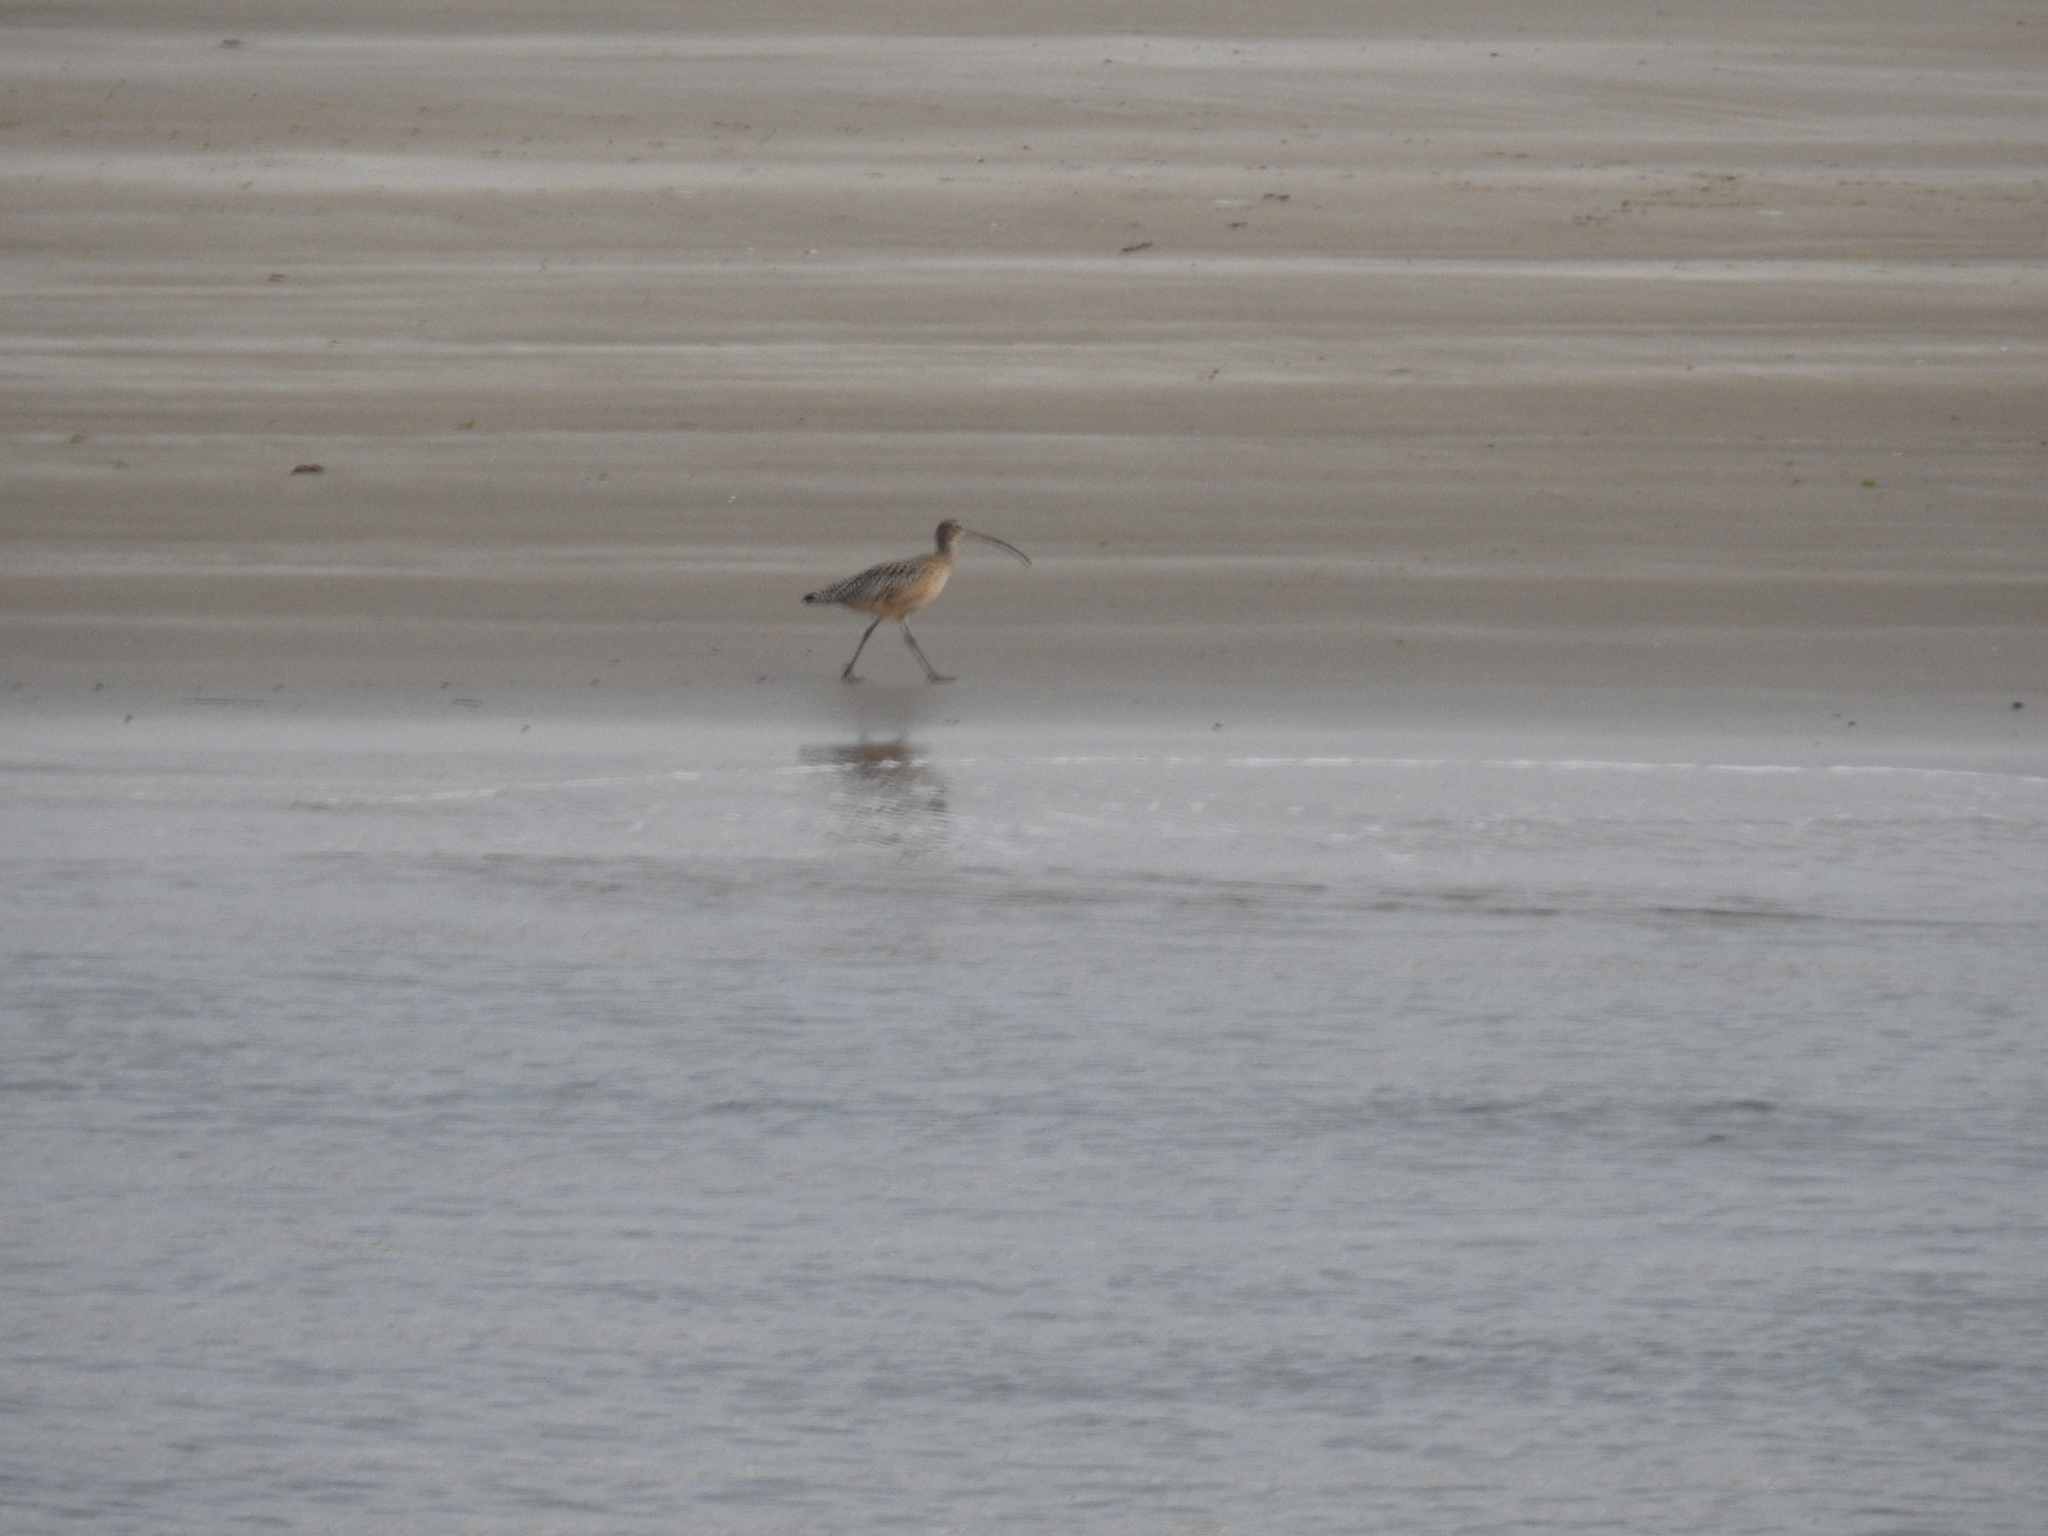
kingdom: Animalia
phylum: Chordata
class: Aves
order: Charadriiformes
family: Scolopacidae
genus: Numenius
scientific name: Numenius americanus
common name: Long-billed curlew
